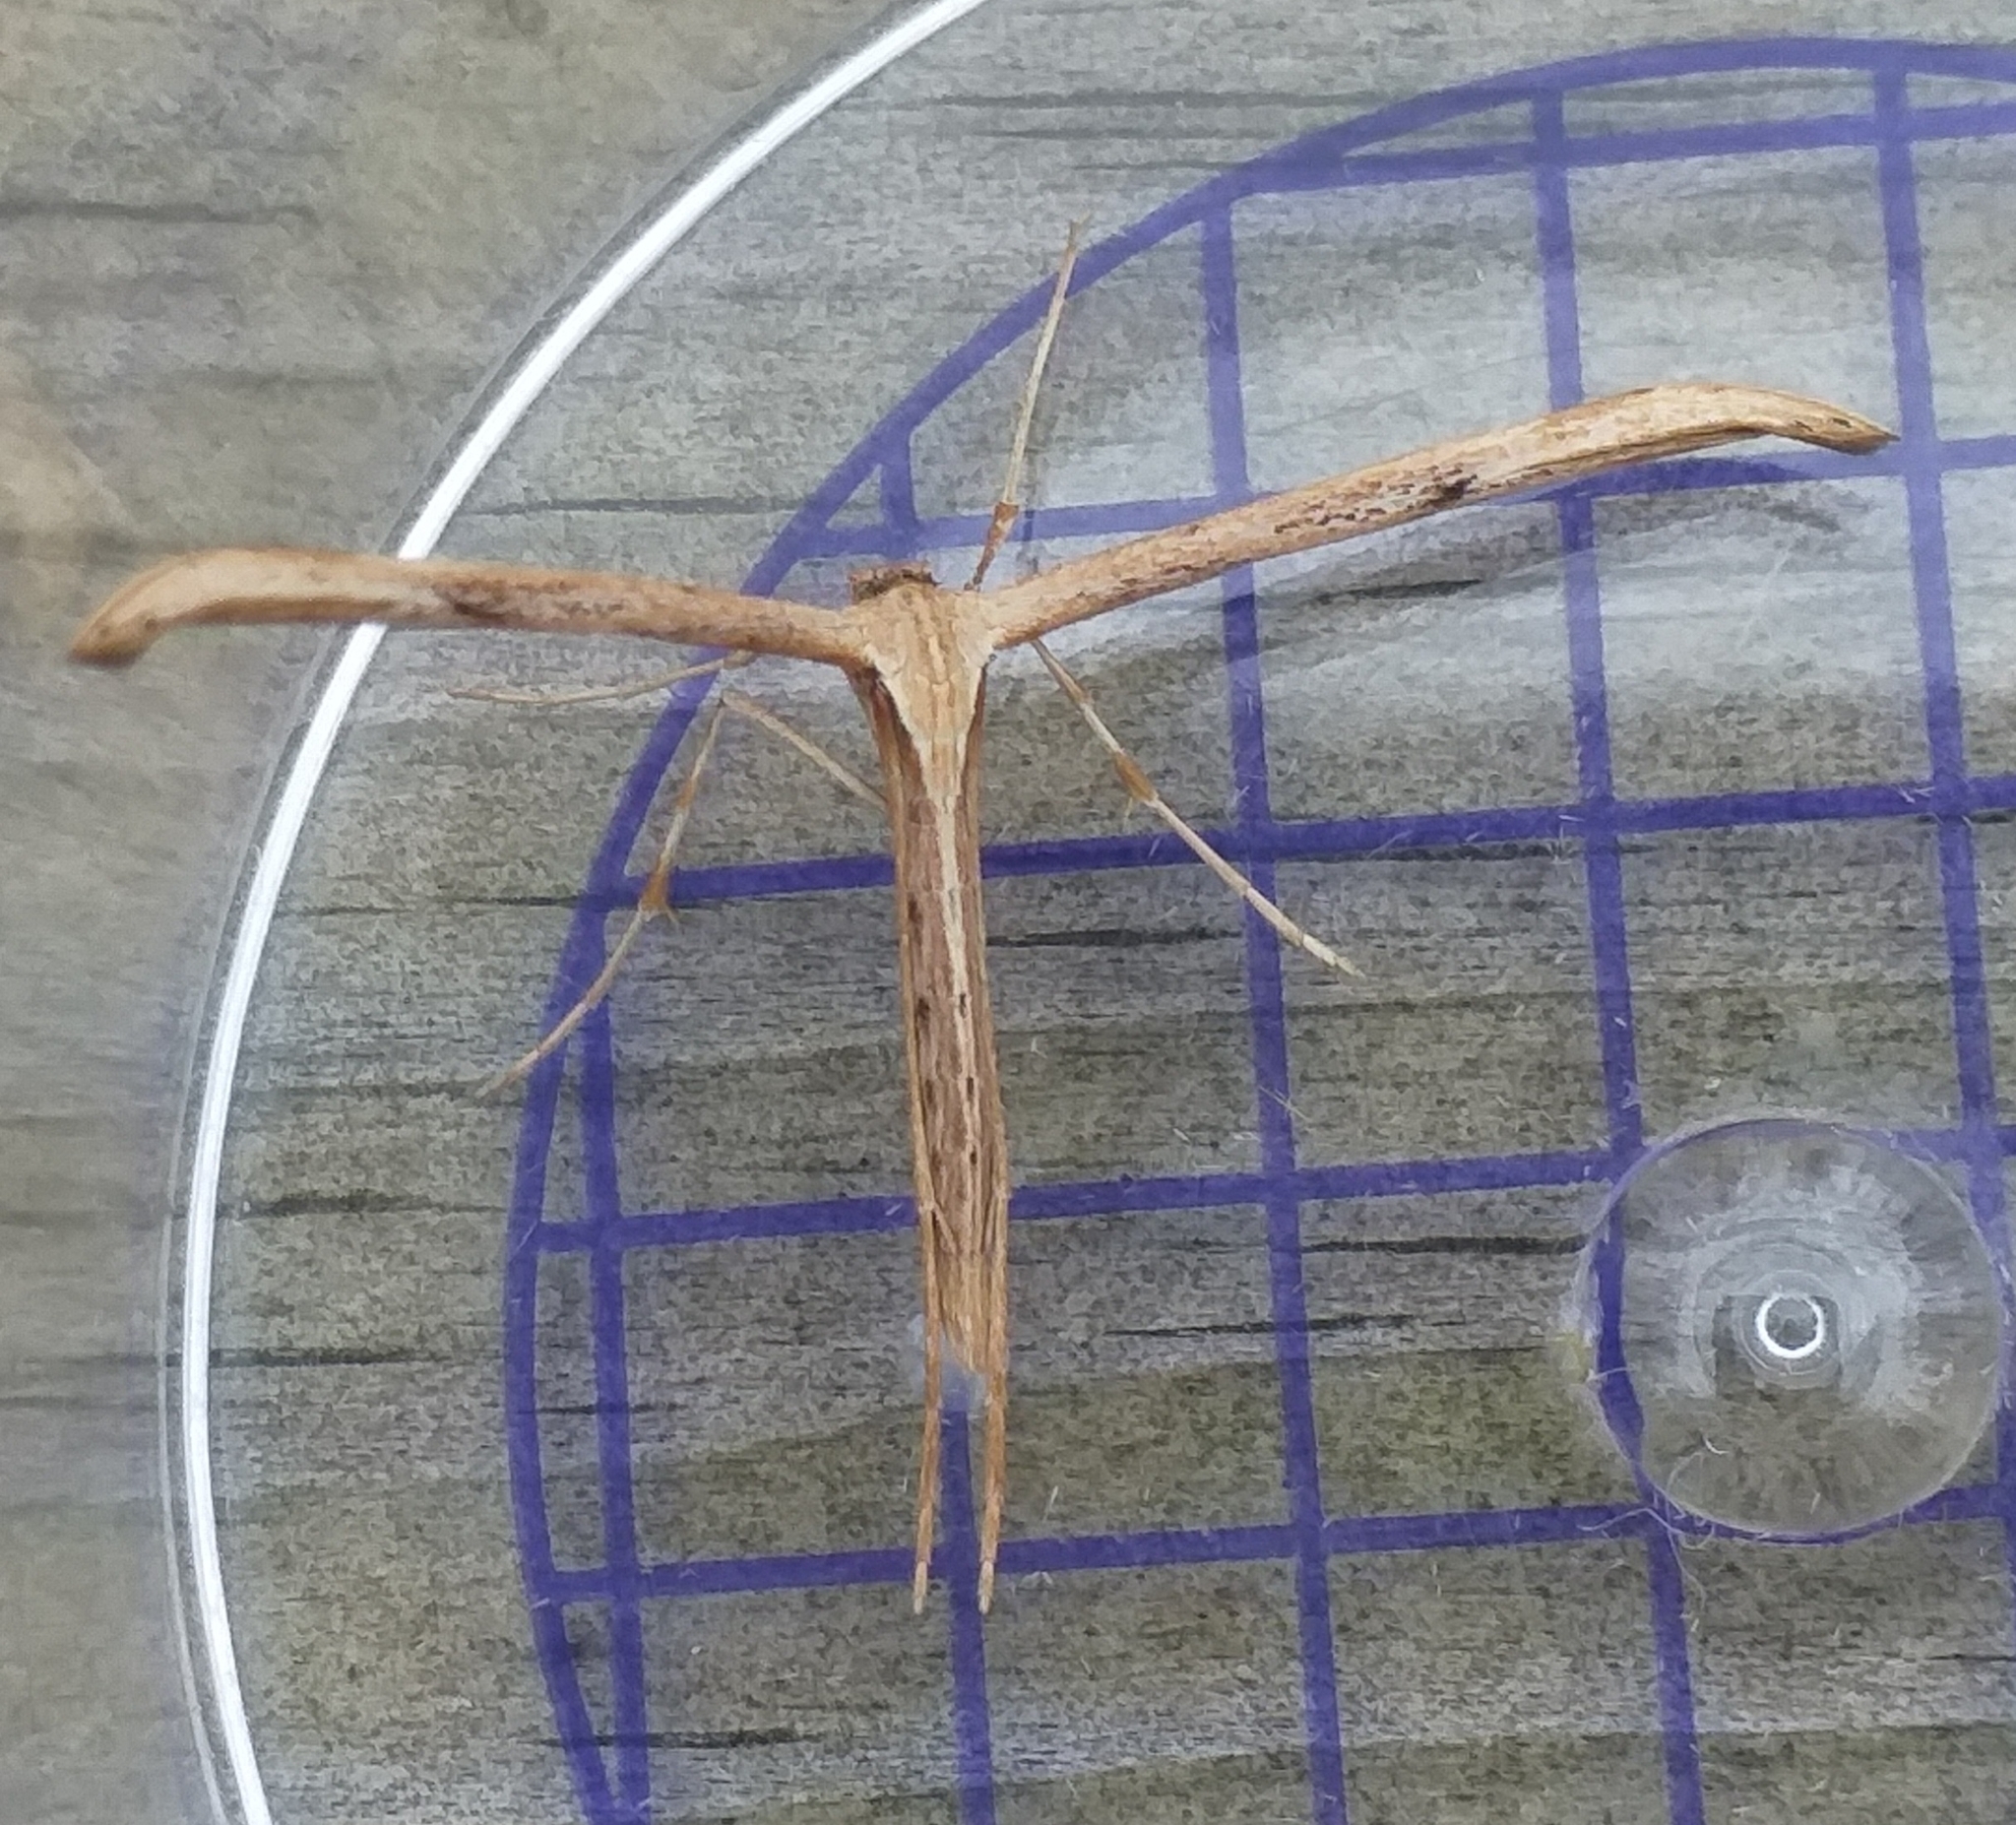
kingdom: Animalia
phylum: Arthropoda
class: Insecta
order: Lepidoptera
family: Pterophoridae
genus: Emmelina
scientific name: Emmelina monodactyla
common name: Common plume
